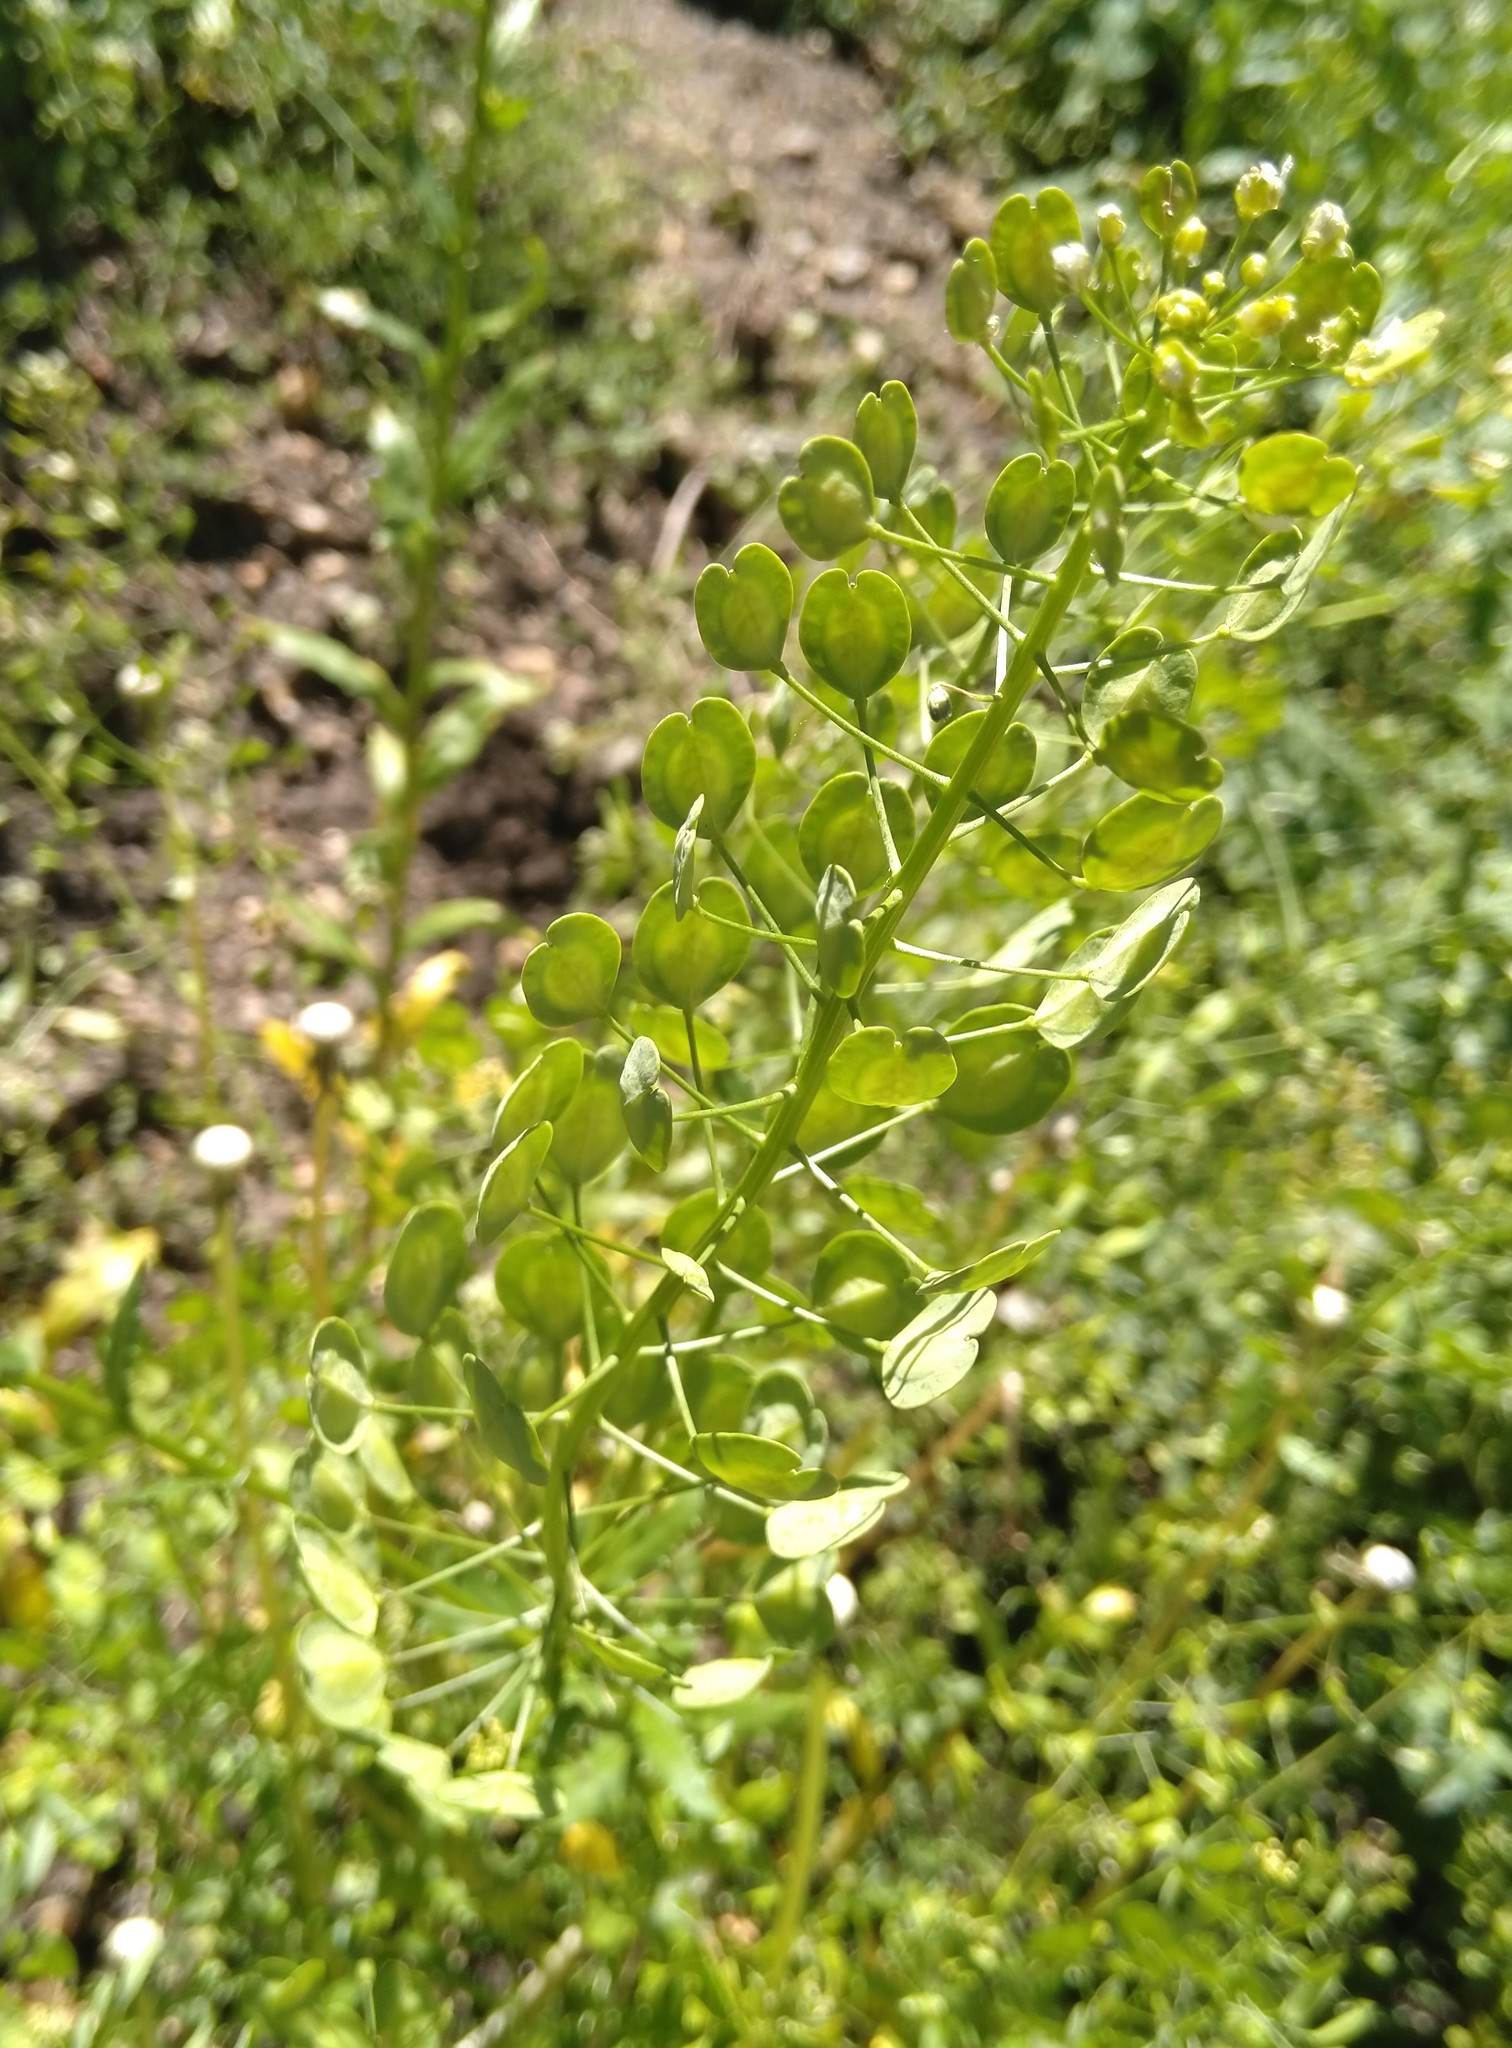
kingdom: Plantae
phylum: Tracheophyta
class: Magnoliopsida
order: Brassicales
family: Brassicaceae
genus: Thlaspi
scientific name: Thlaspi arvense
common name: Field pennycress
